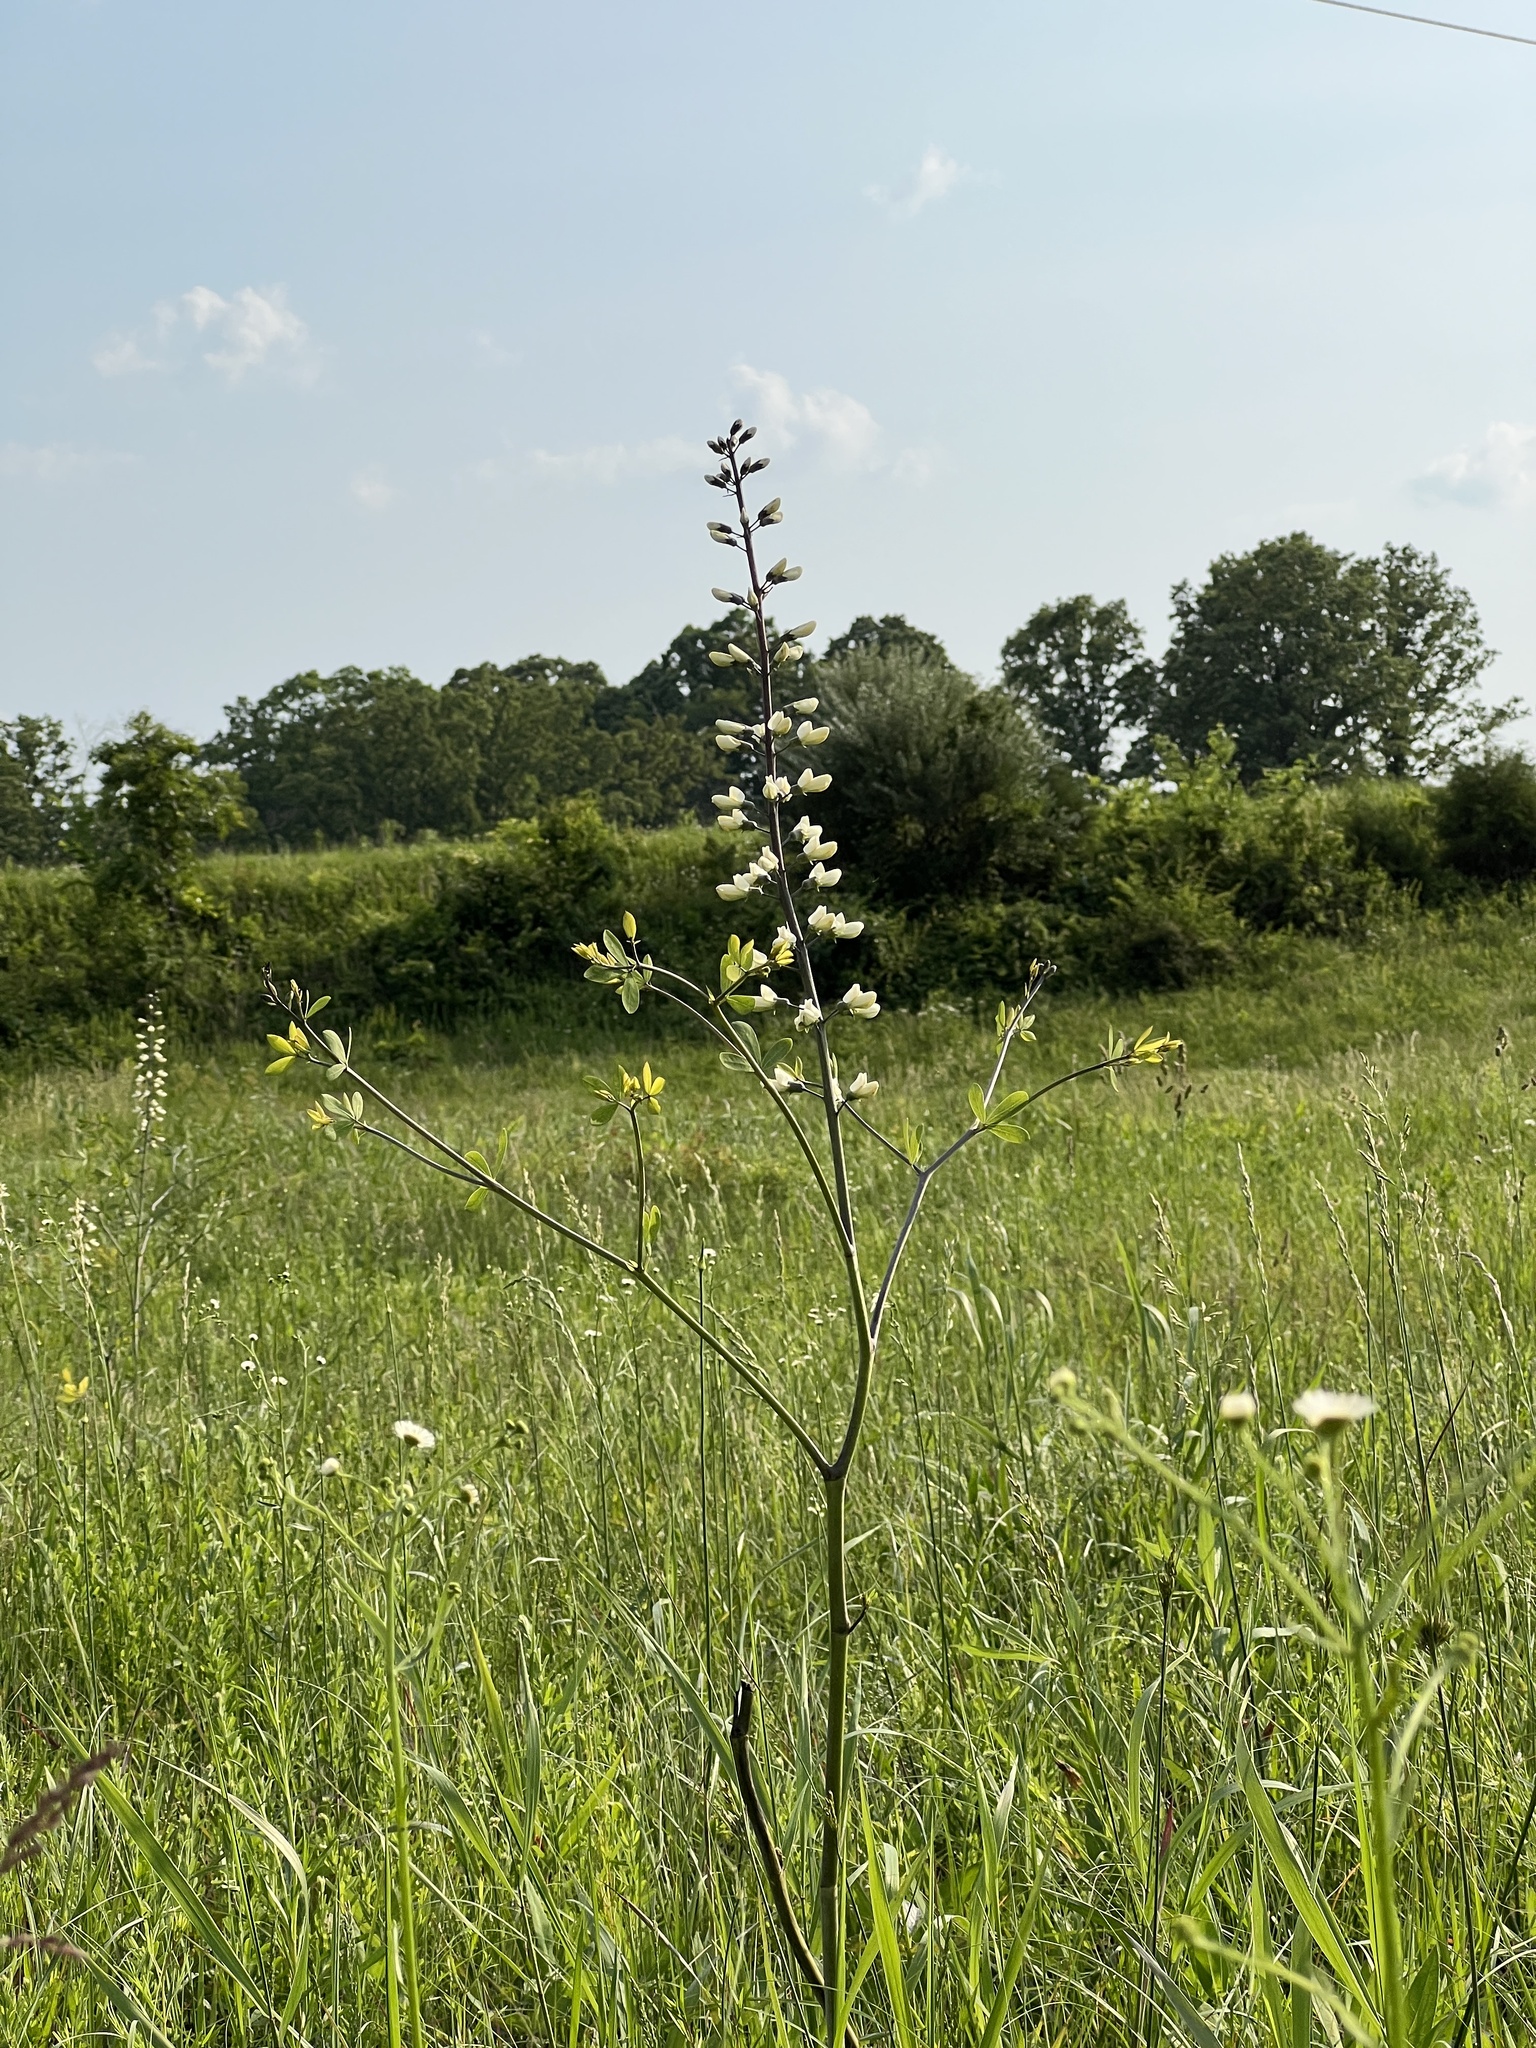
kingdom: Plantae
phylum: Tracheophyta
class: Magnoliopsida
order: Fabales
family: Fabaceae
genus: Baptisia
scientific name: Baptisia alba
